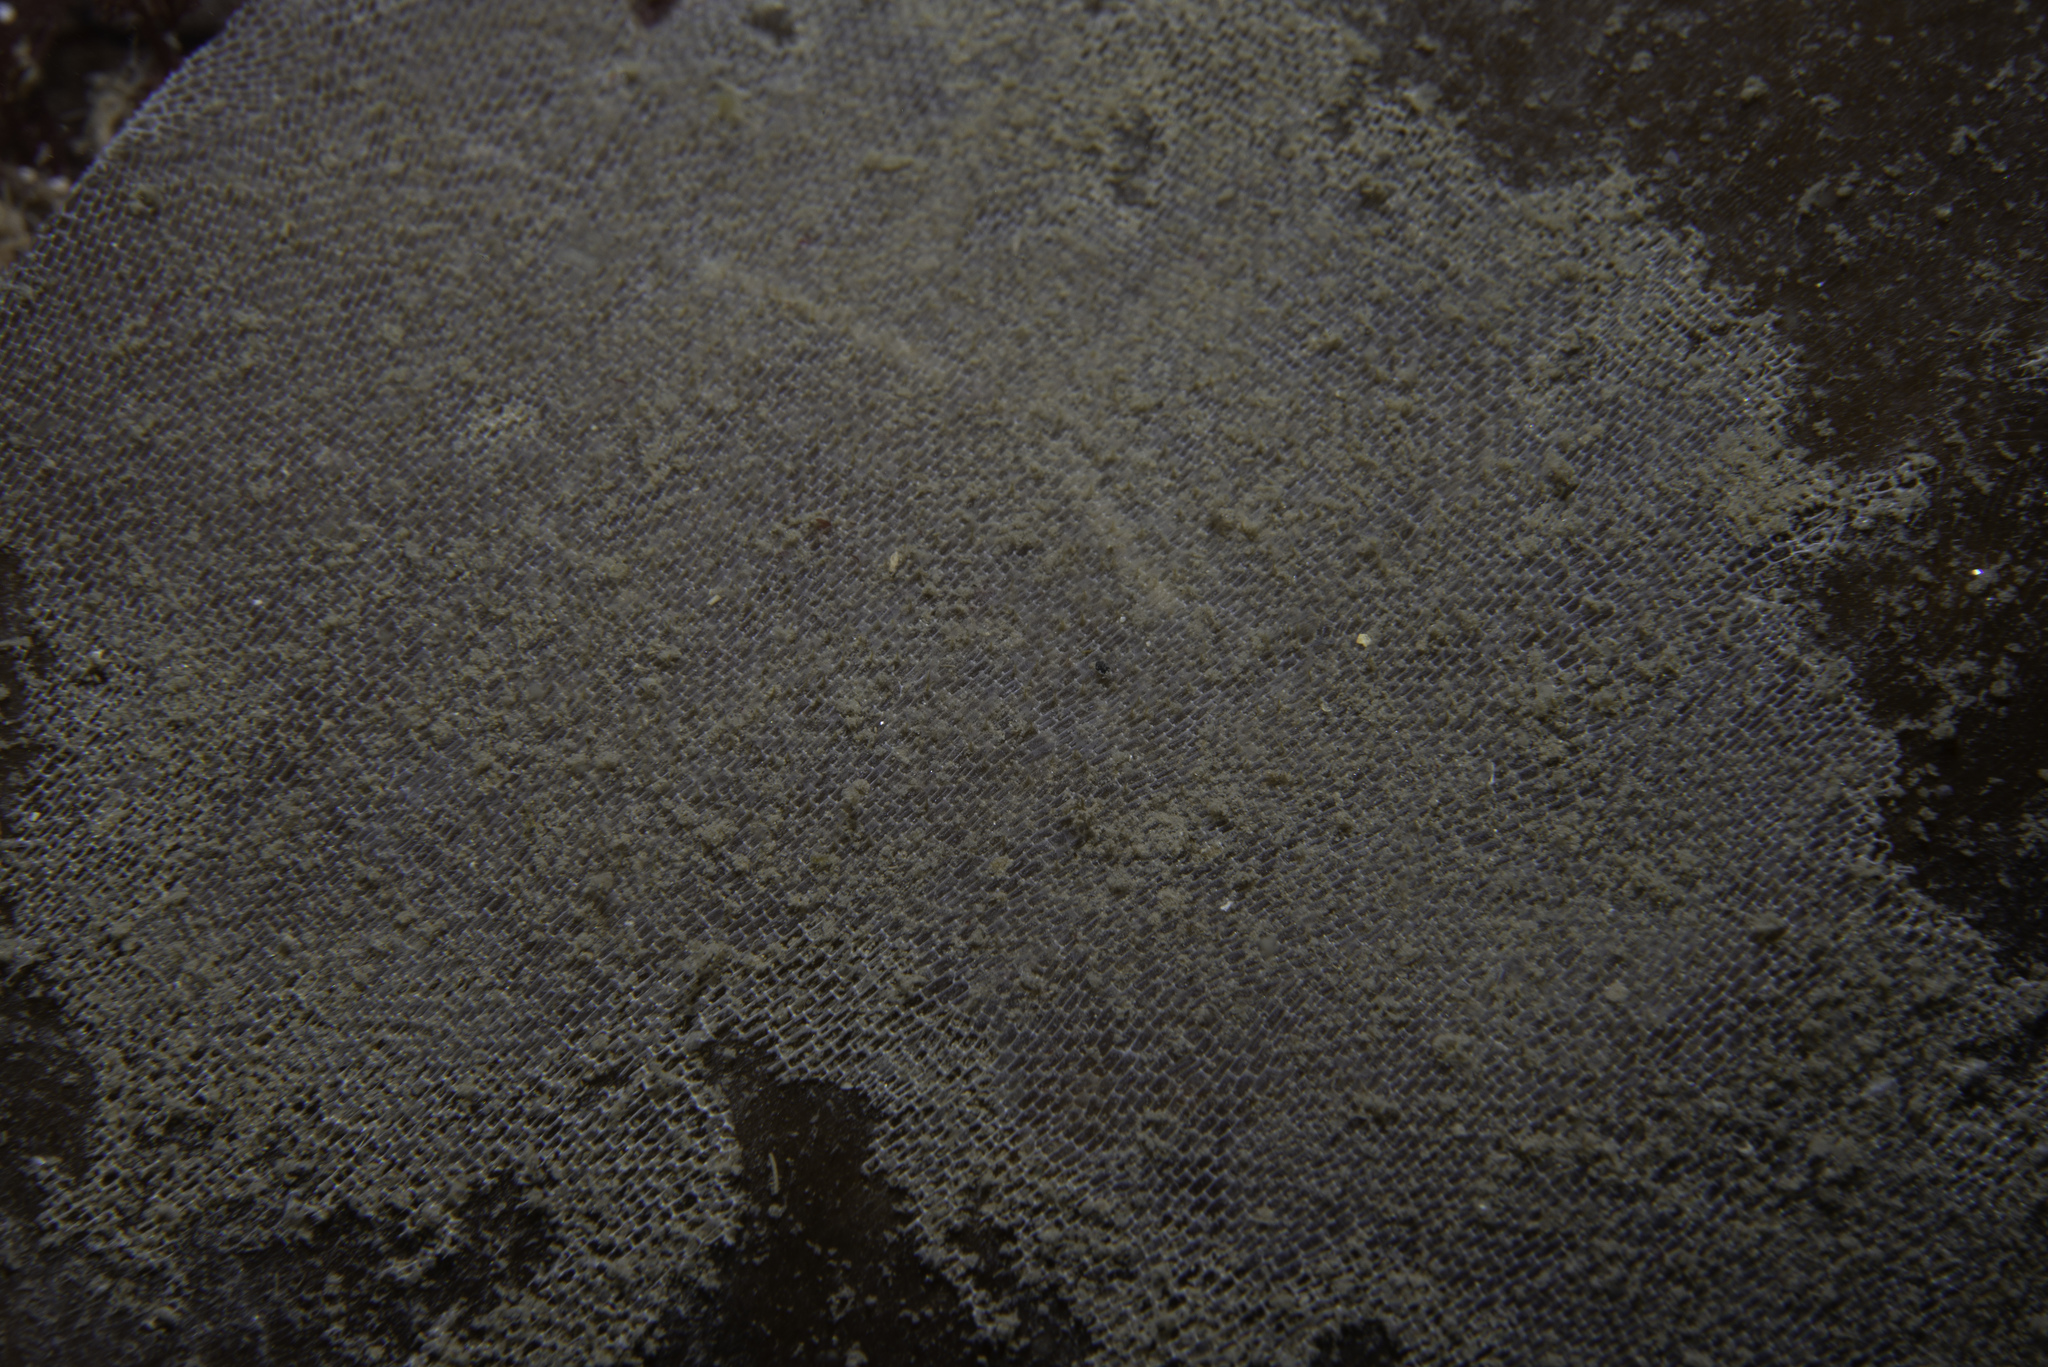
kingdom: Animalia
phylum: Bryozoa
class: Gymnolaemata
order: Cheilostomatida
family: Membraniporidae
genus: Membranipora
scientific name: Membranipora membranacea
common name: Sea mat
